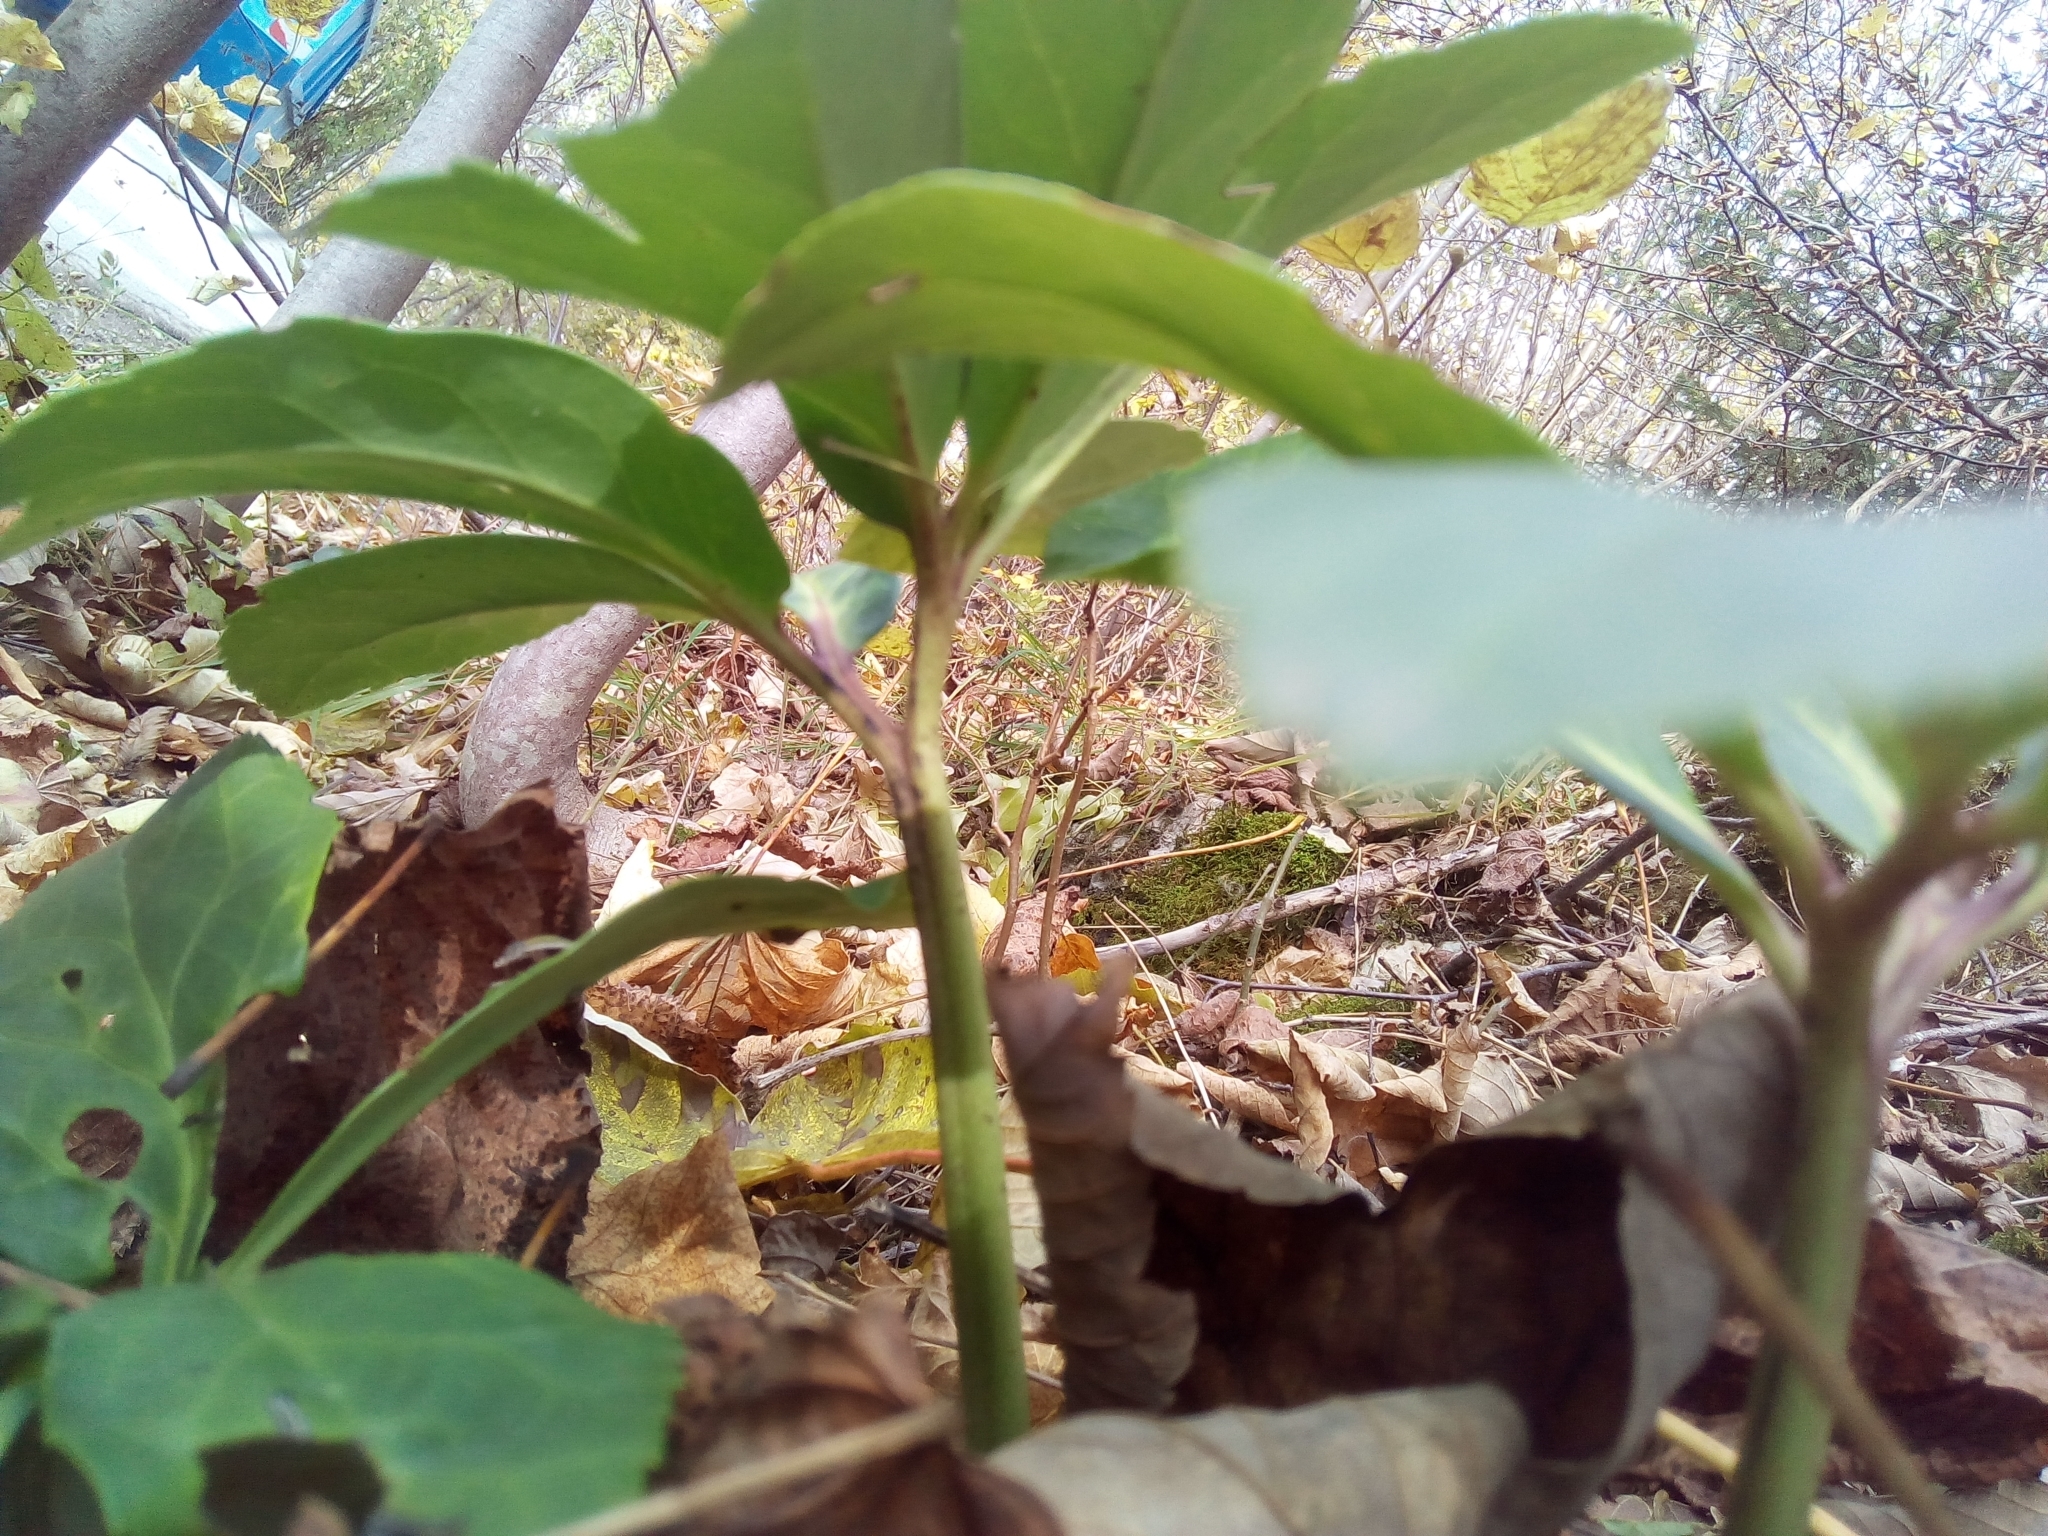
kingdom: Plantae
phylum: Tracheophyta
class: Magnoliopsida
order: Ranunculales
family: Ranunculaceae
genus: Helleborus
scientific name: Helleborus niger
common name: Black hellebore
